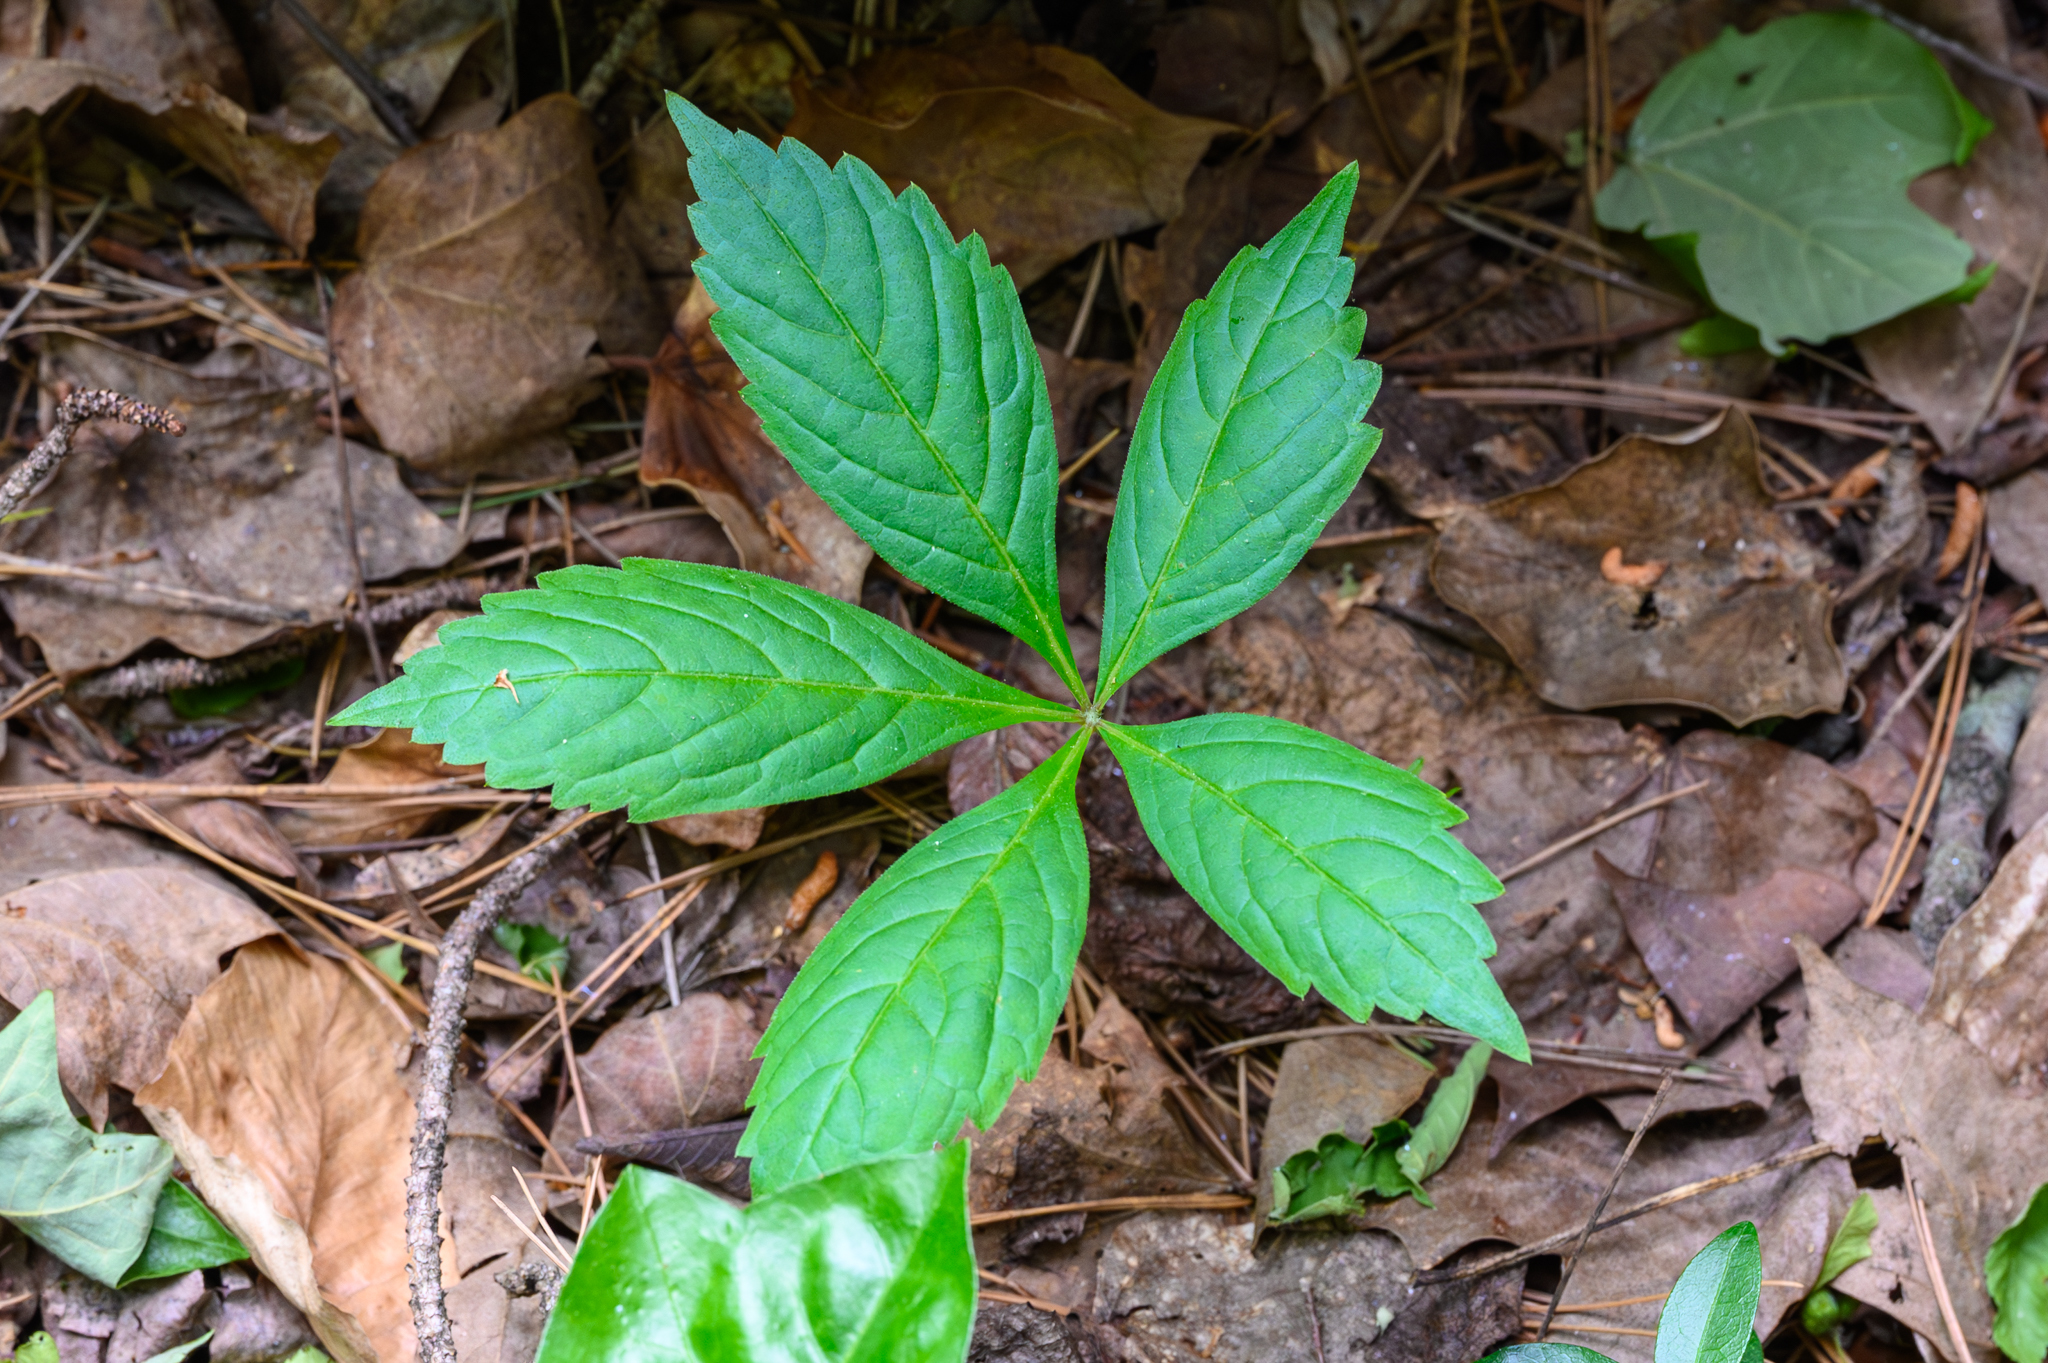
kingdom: Plantae
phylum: Tracheophyta
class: Magnoliopsida
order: Vitales
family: Vitaceae
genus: Parthenocissus
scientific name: Parthenocissus quinquefolia
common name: Virginia-creeper
